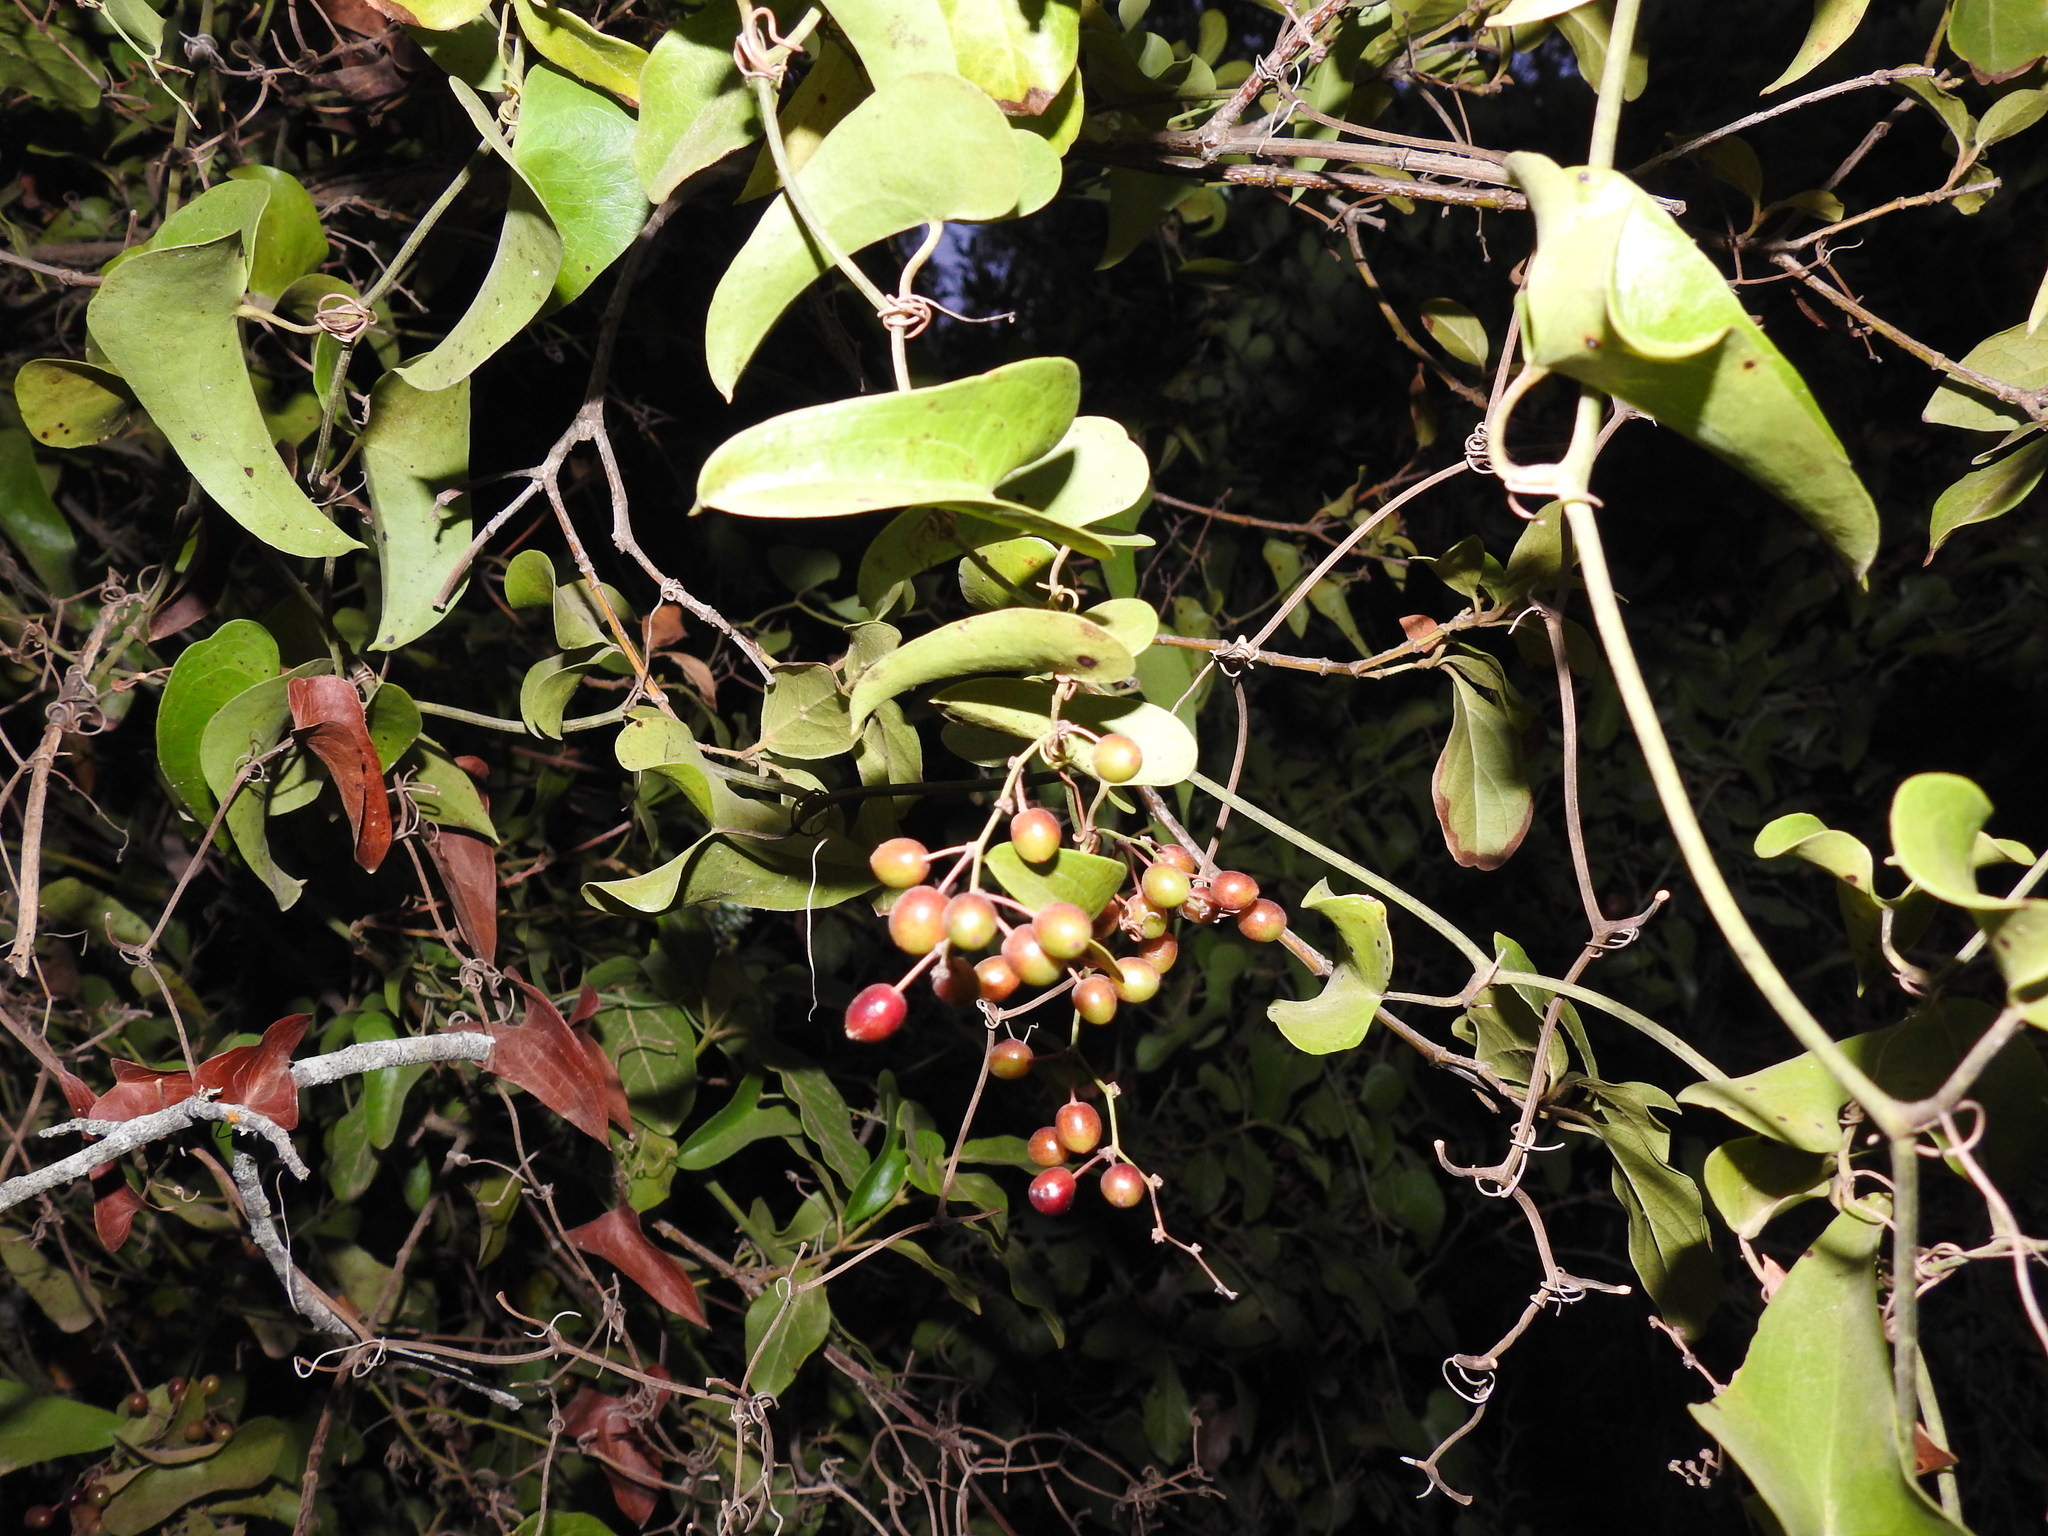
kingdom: Plantae
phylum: Tracheophyta
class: Liliopsida
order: Liliales
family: Smilacaceae
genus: Smilax
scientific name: Smilax aspera
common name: Common smilax
